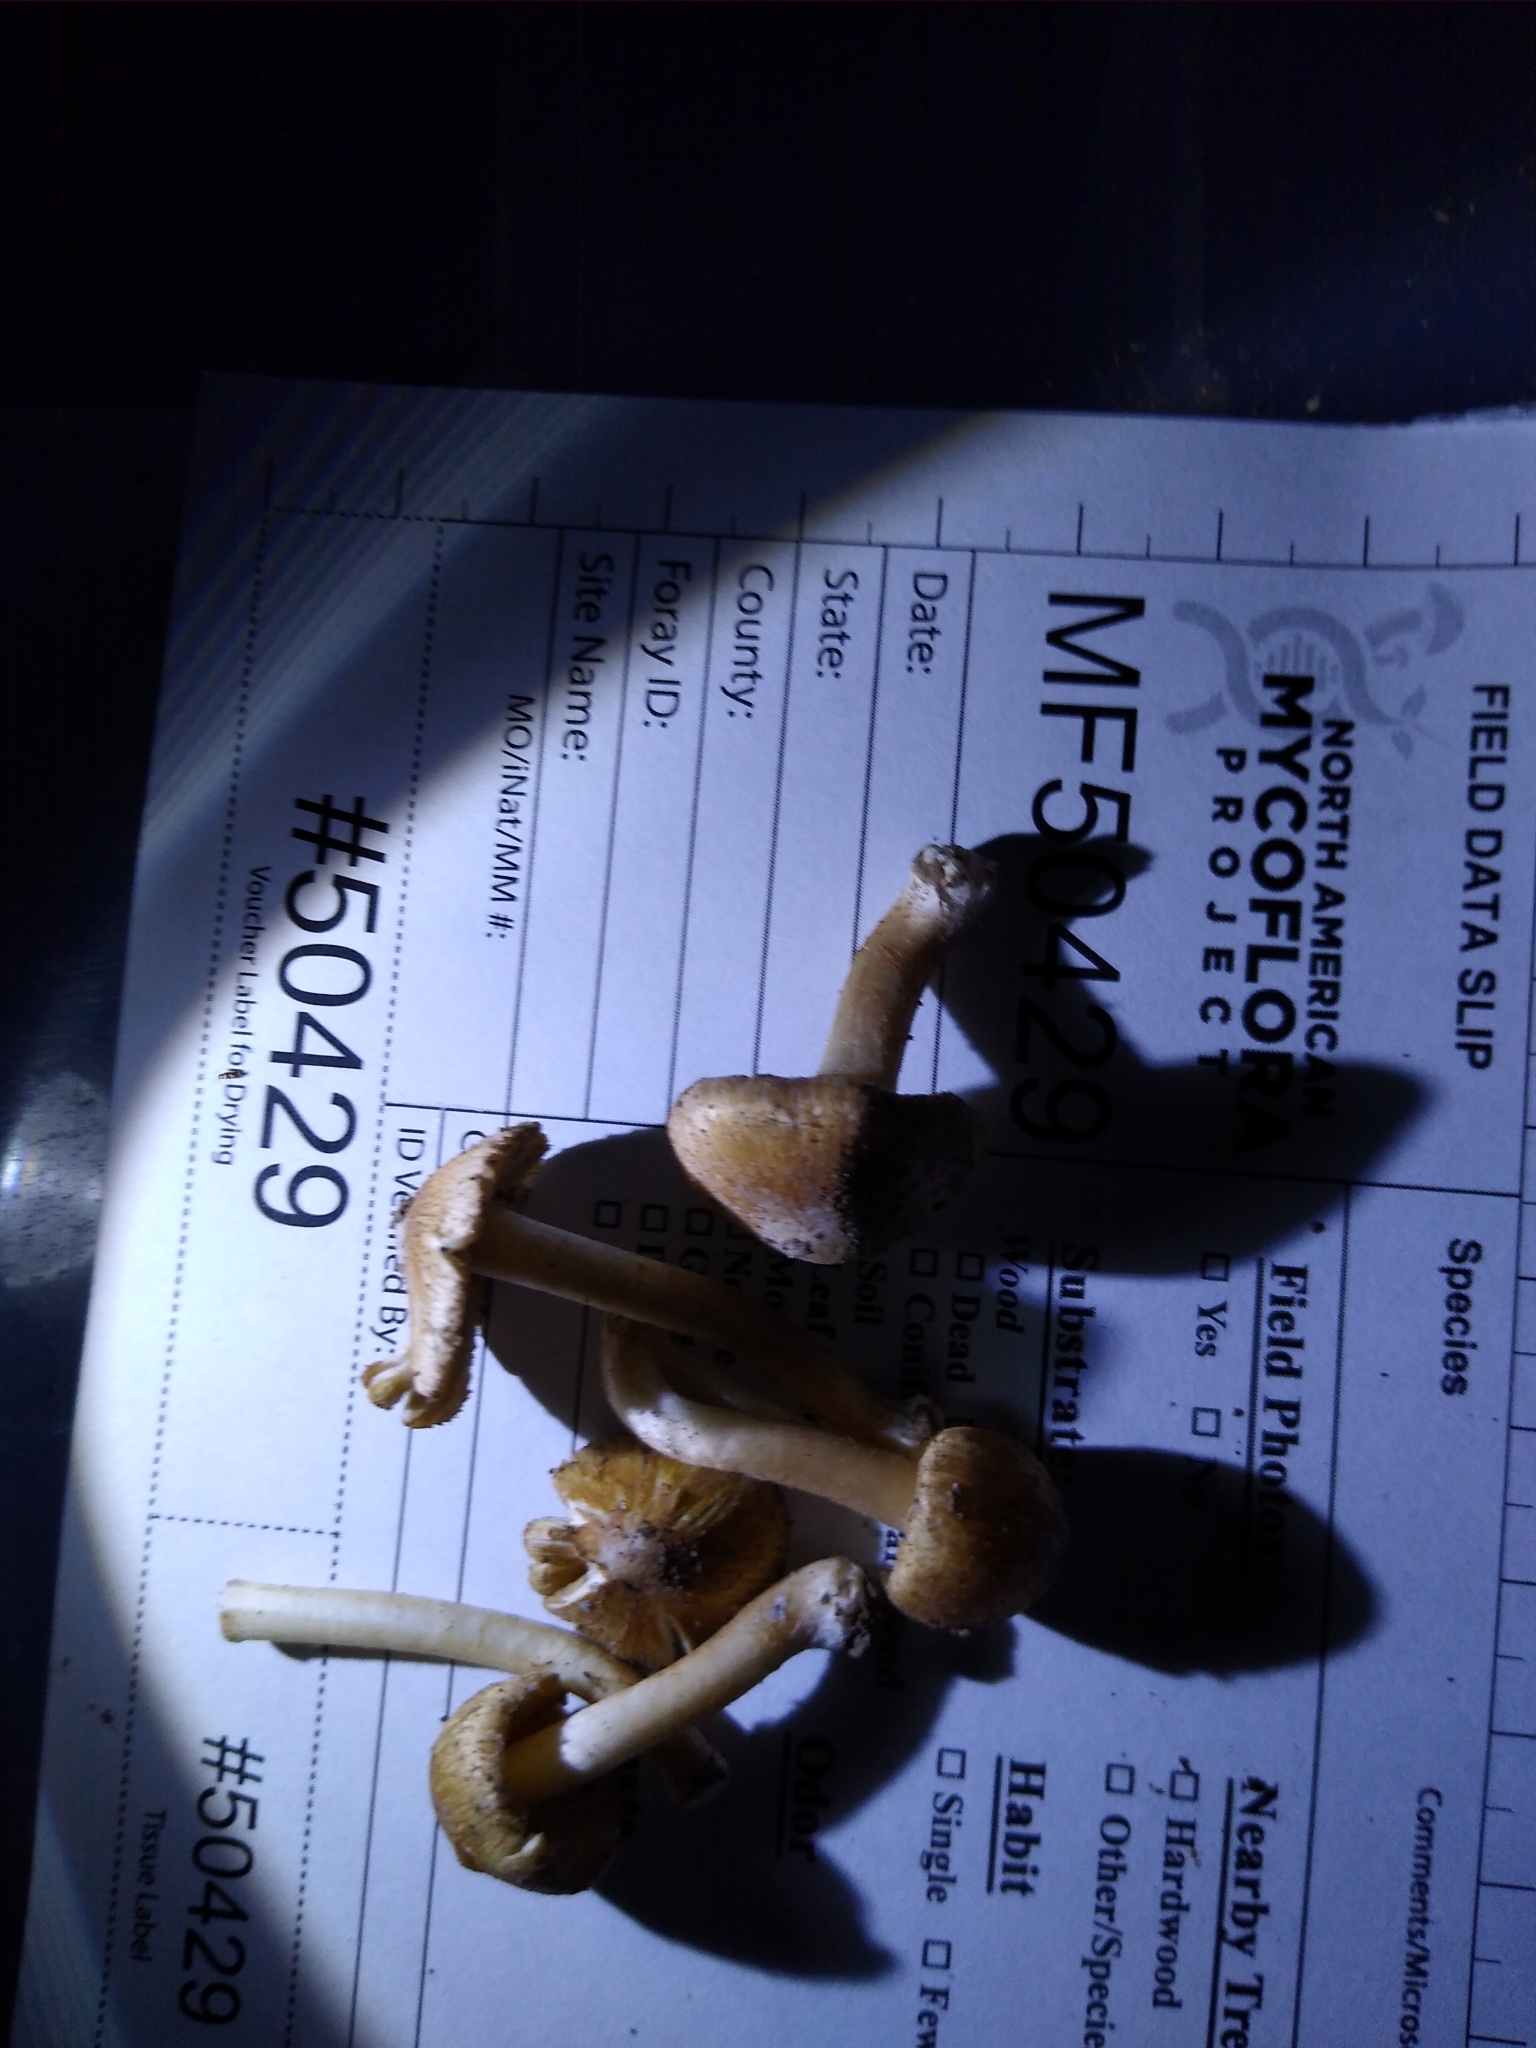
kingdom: Fungi
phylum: Basidiomycota
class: Agaricomycetes
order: Agaricales
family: Inocybaceae
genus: Pseudosperma
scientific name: Pseudosperma curreyi
